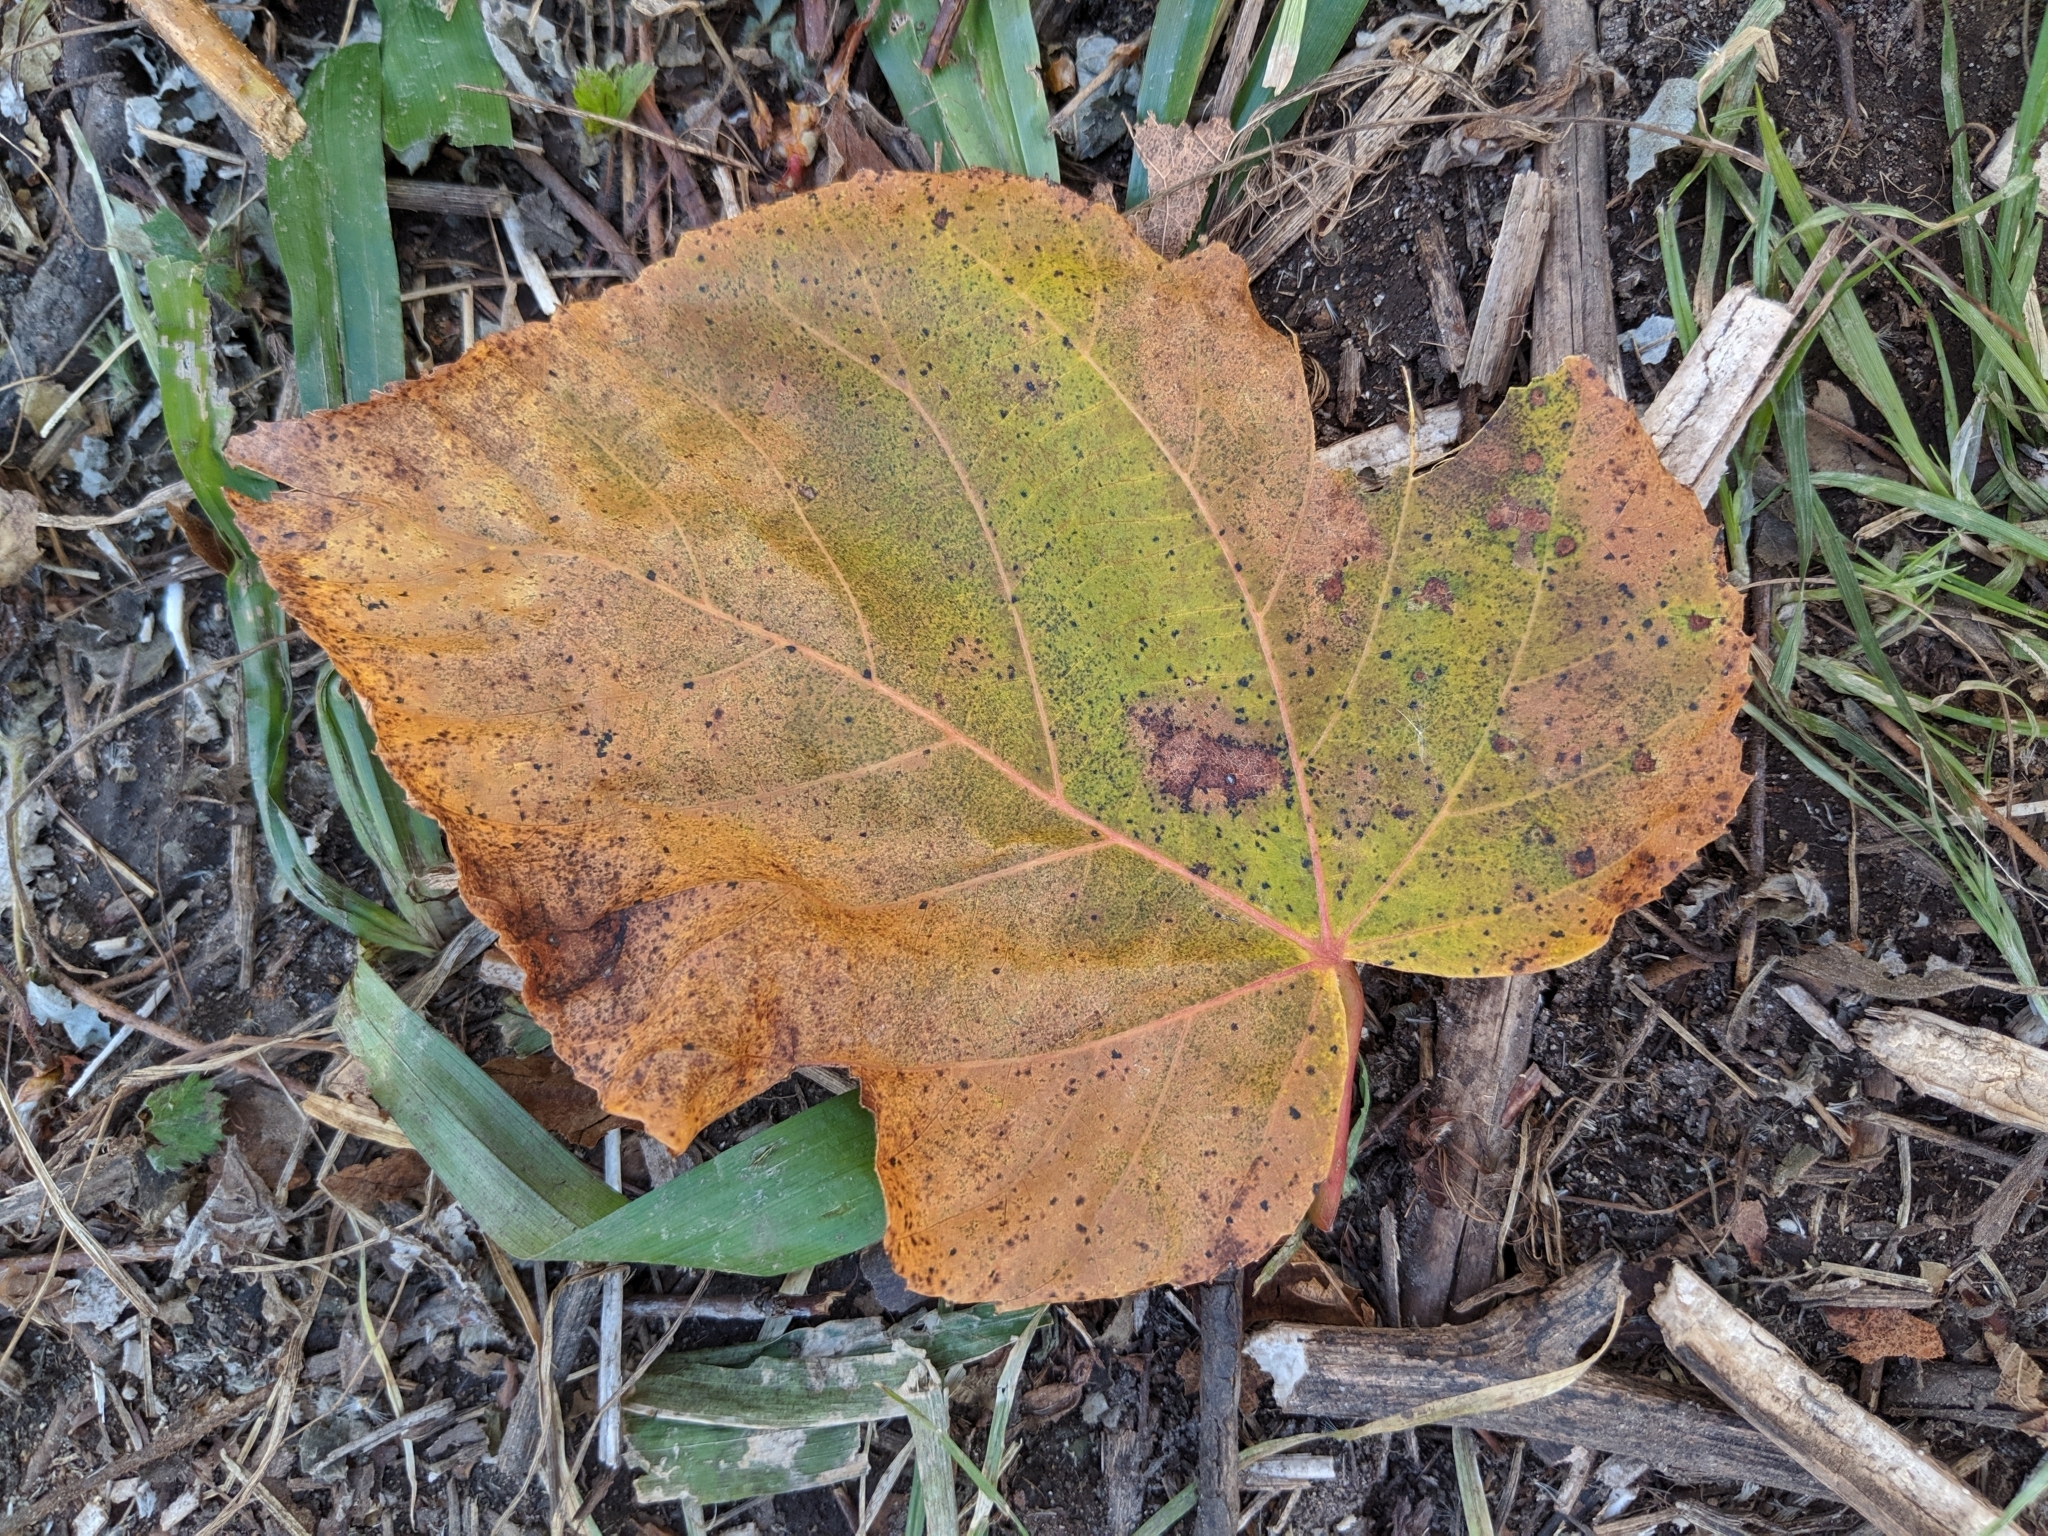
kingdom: Plantae
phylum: Tracheophyta
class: Magnoliopsida
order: Malvales
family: Malvaceae
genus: Tilia
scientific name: Tilia americana
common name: Basswood
